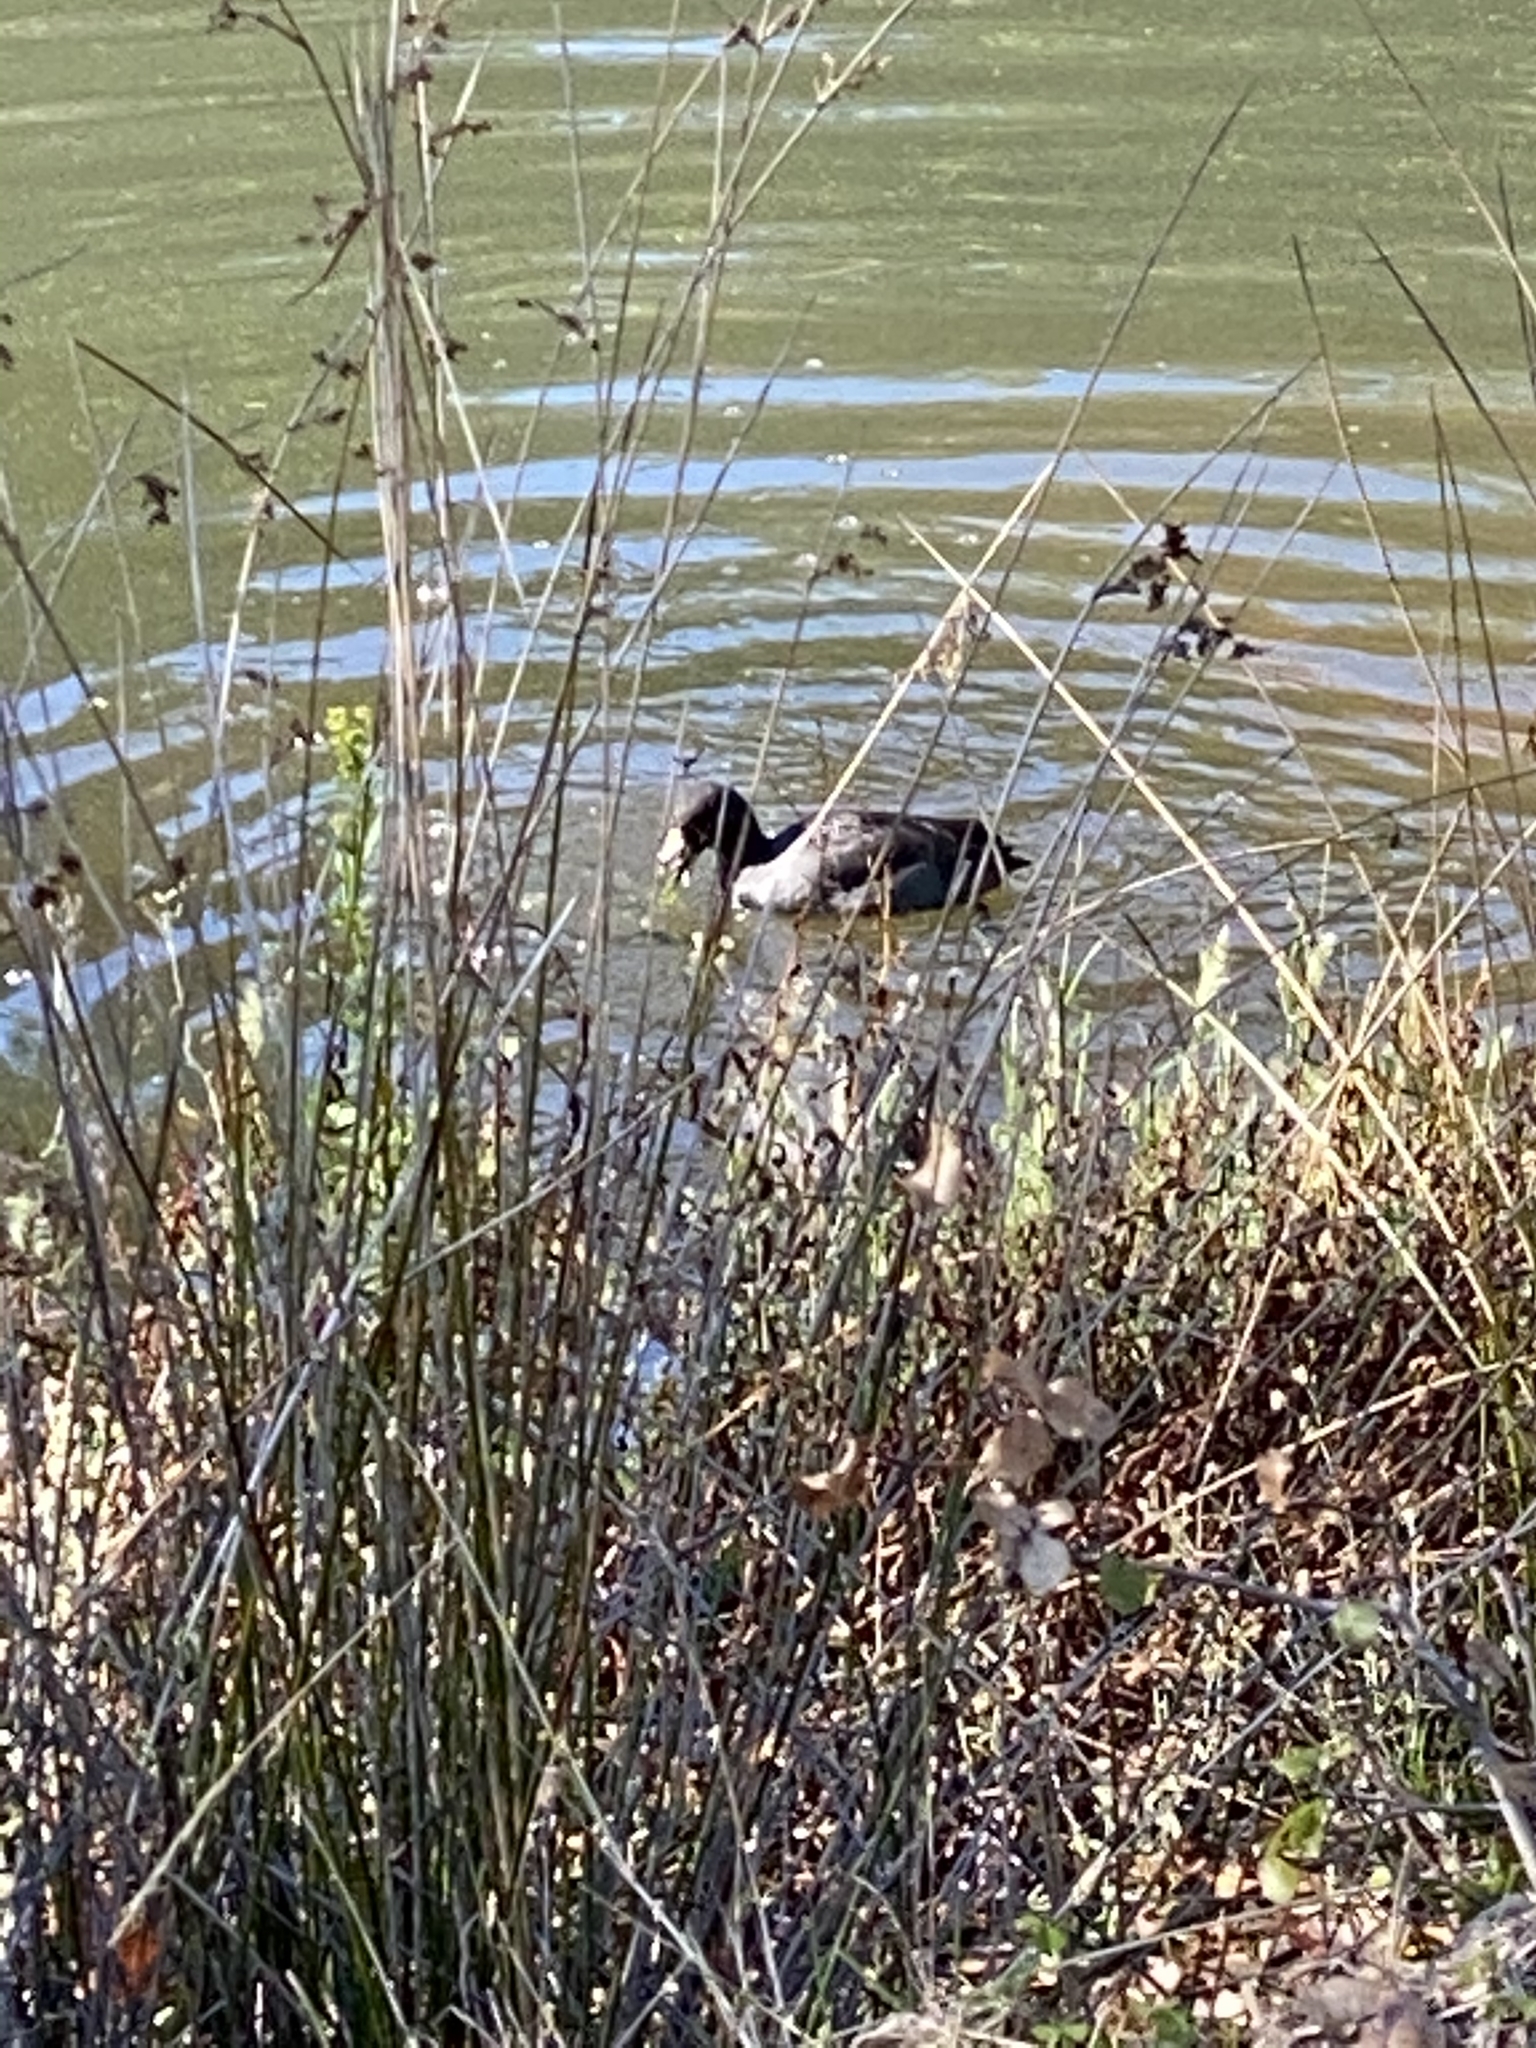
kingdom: Animalia
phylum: Chordata
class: Aves
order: Gruiformes
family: Rallidae
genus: Fulica
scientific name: Fulica americana
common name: American coot
